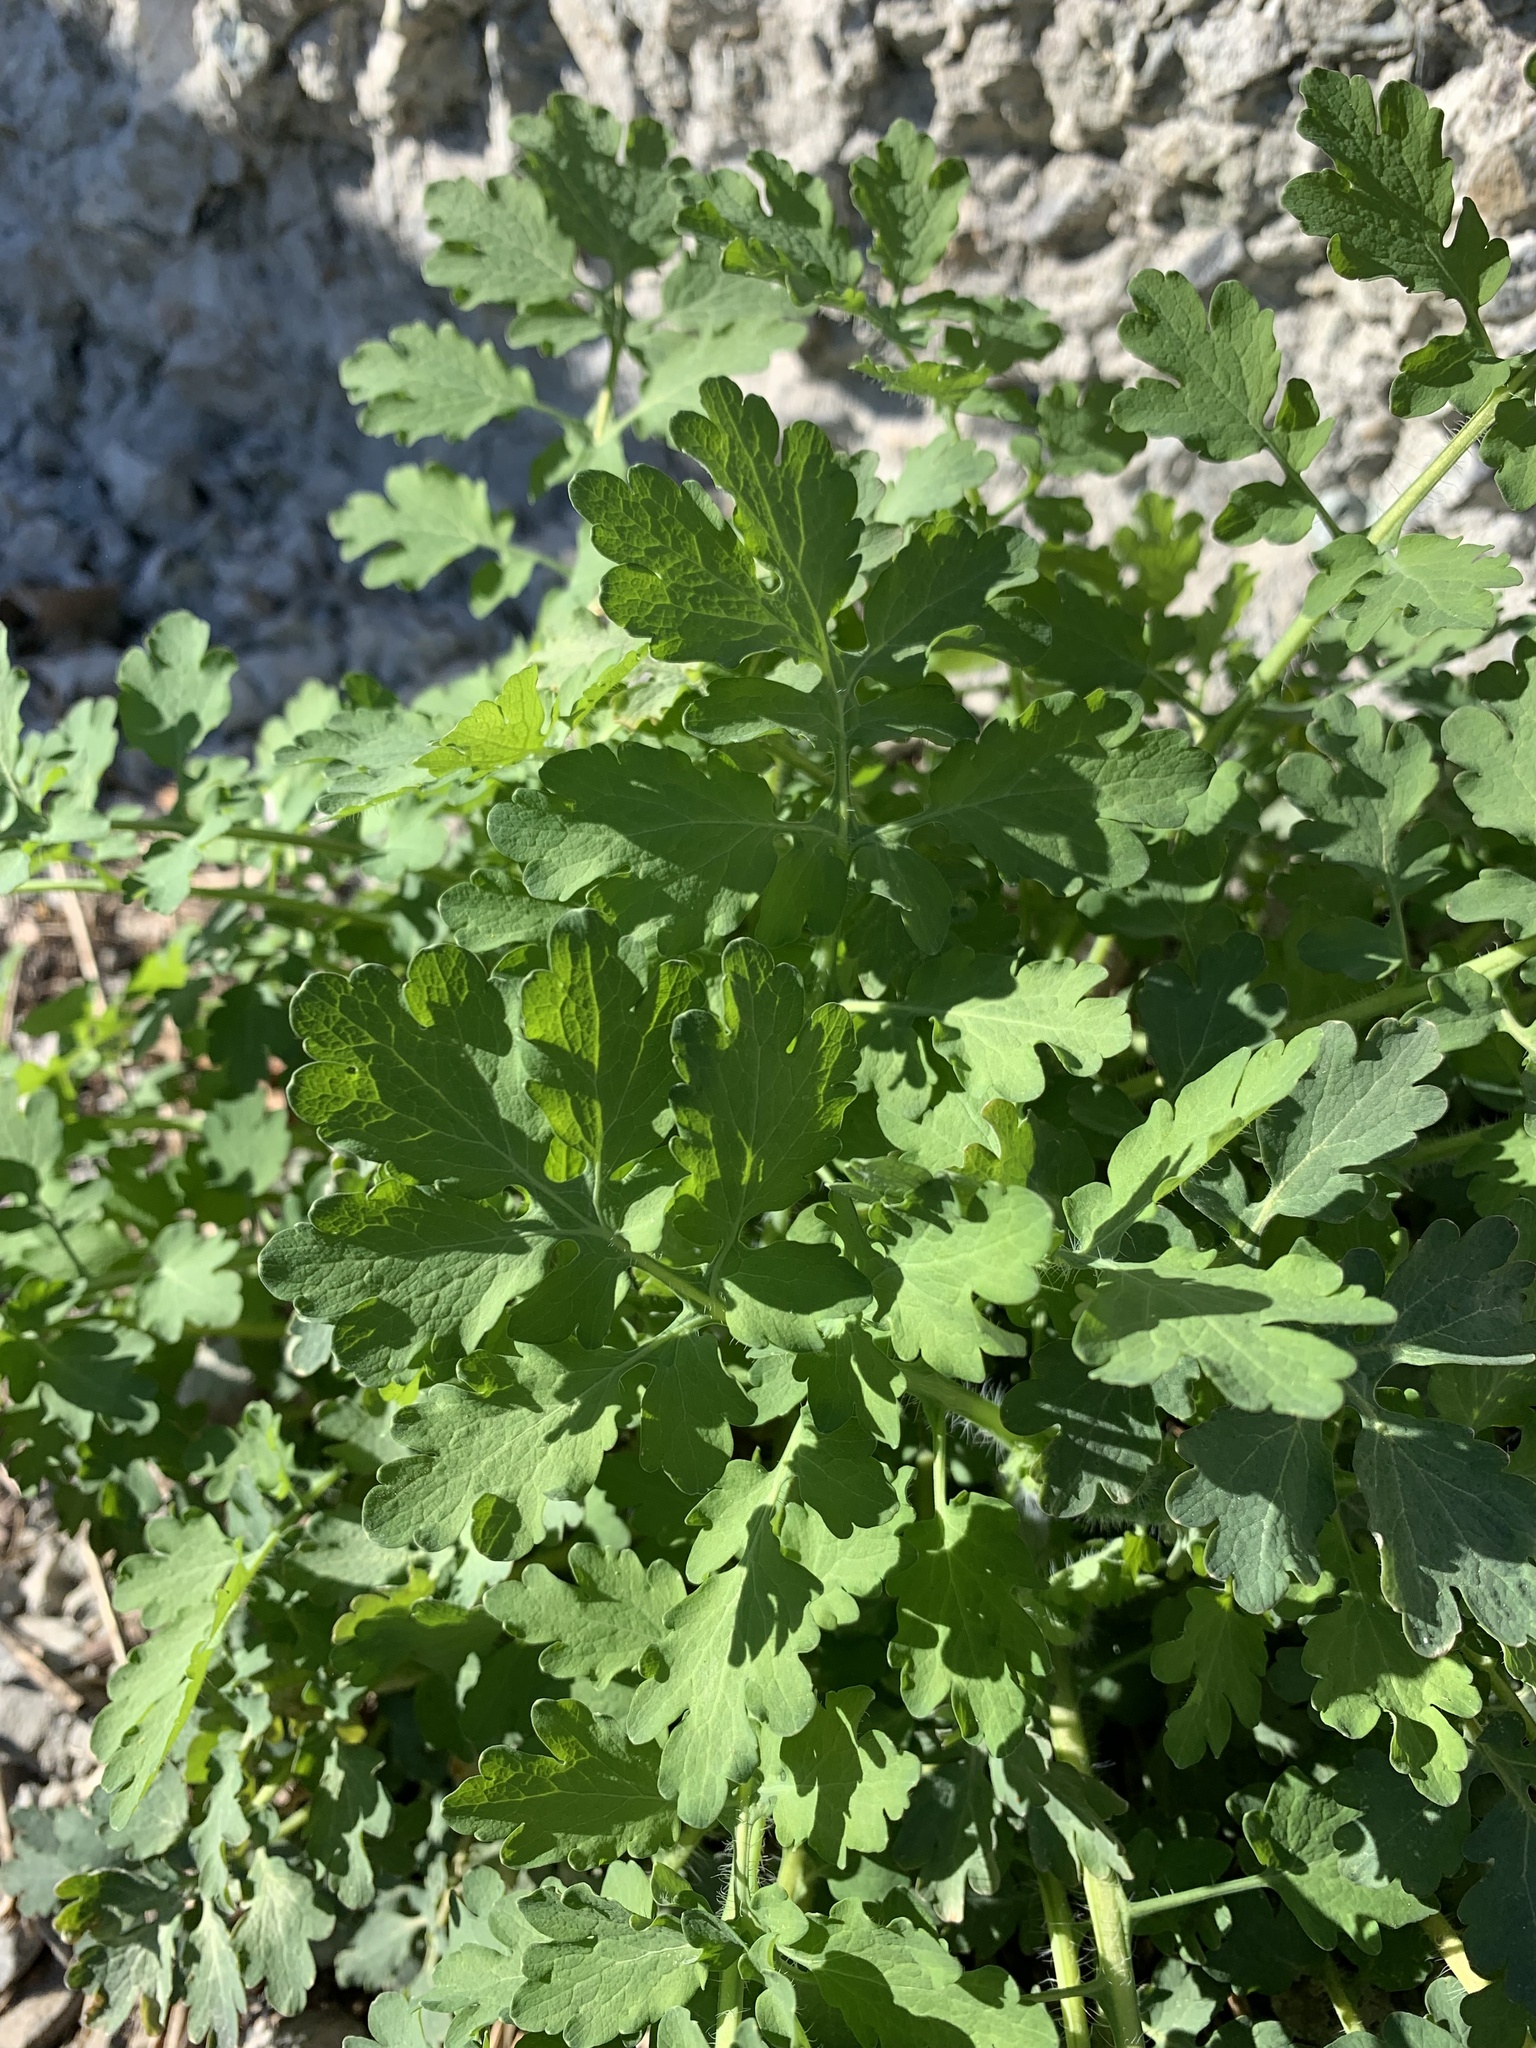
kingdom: Plantae
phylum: Tracheophyta
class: Magnoliopsida
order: Ranunculales
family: Papaveraceae
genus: Chelidonium
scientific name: Chelidonium majus
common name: Greater celandine
